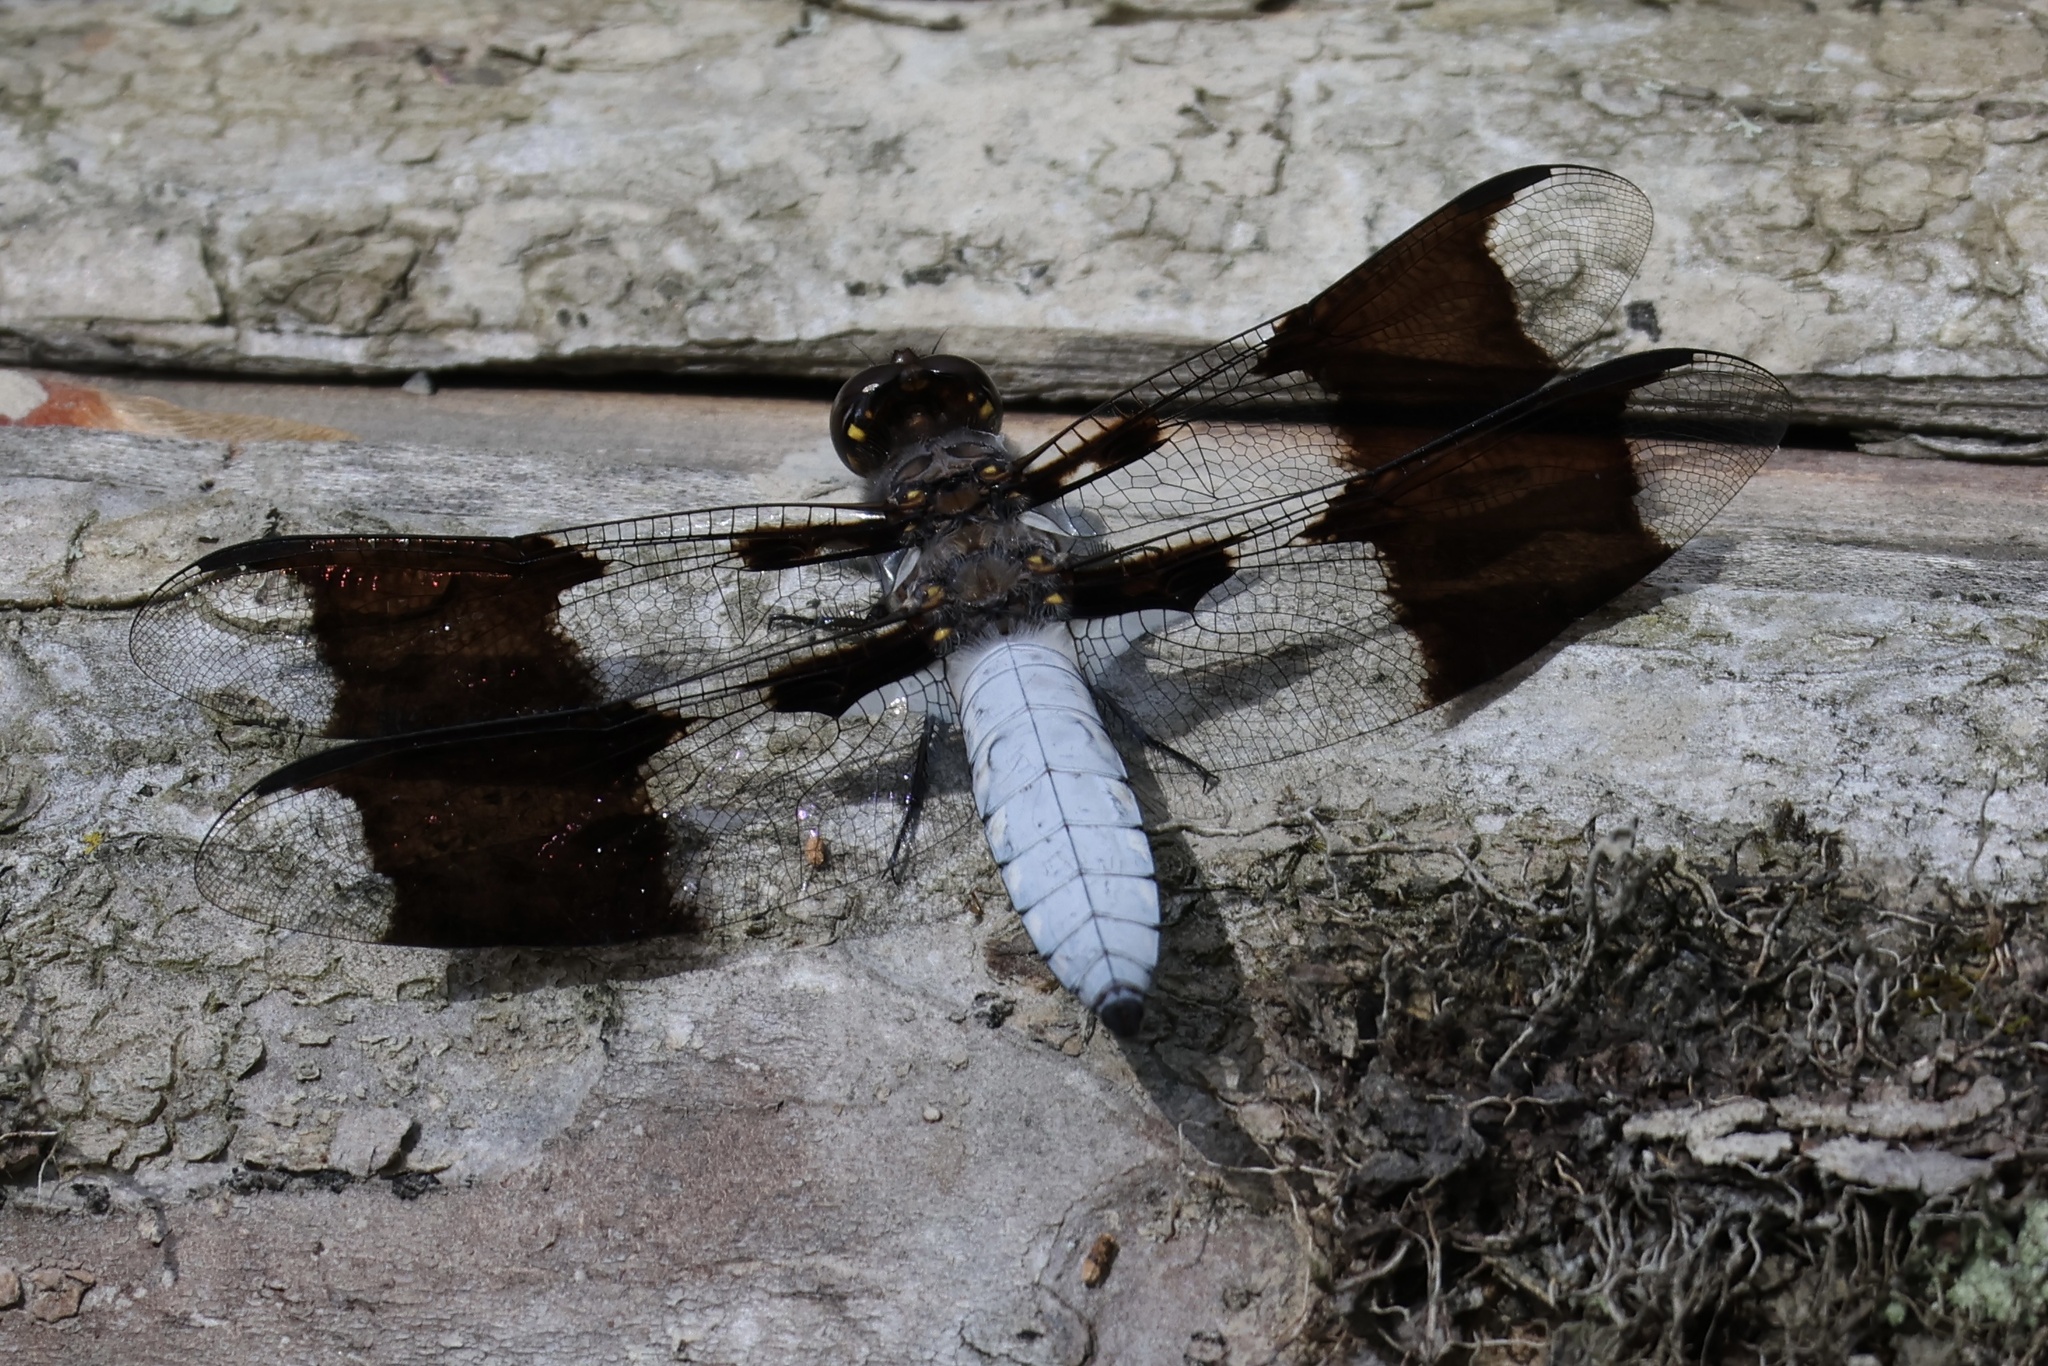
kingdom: Animalia
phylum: Arthropoda
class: Insecta
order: Odonata
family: Libellulidae
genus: Plathemis
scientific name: Plathemis lydia
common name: Common whitetail
